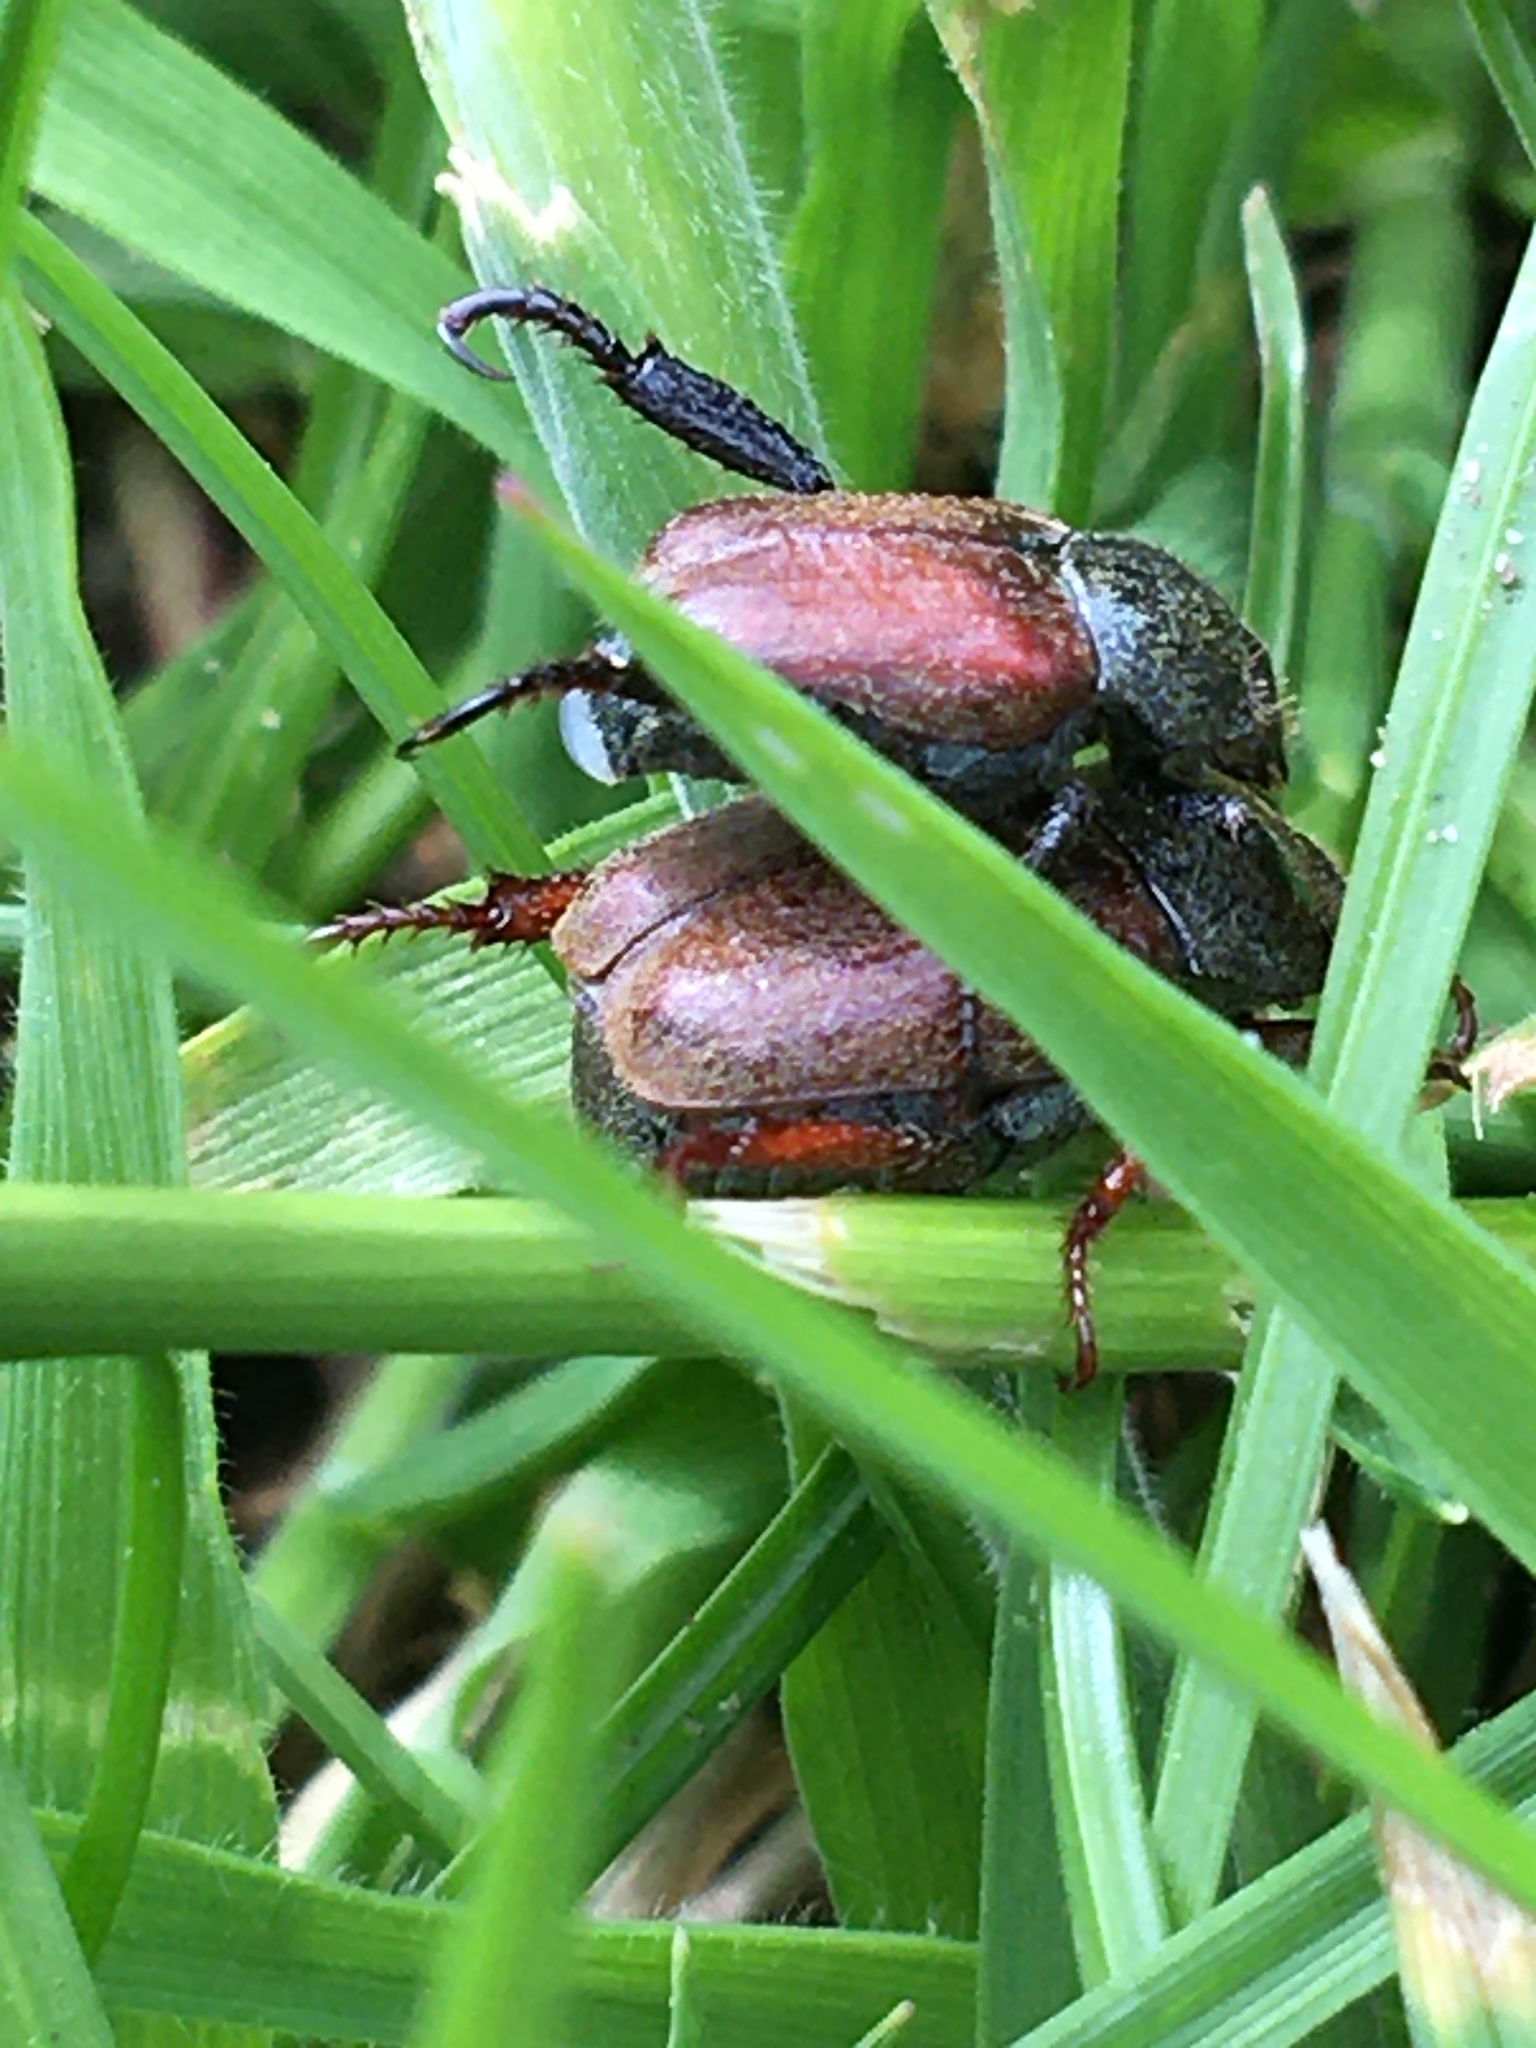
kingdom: Animalia
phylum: Arthropoda
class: Insecta
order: Coleoptera
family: Scarabaeidae
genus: Hoplia
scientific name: Hoplia philanthus
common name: Welsh chafer
